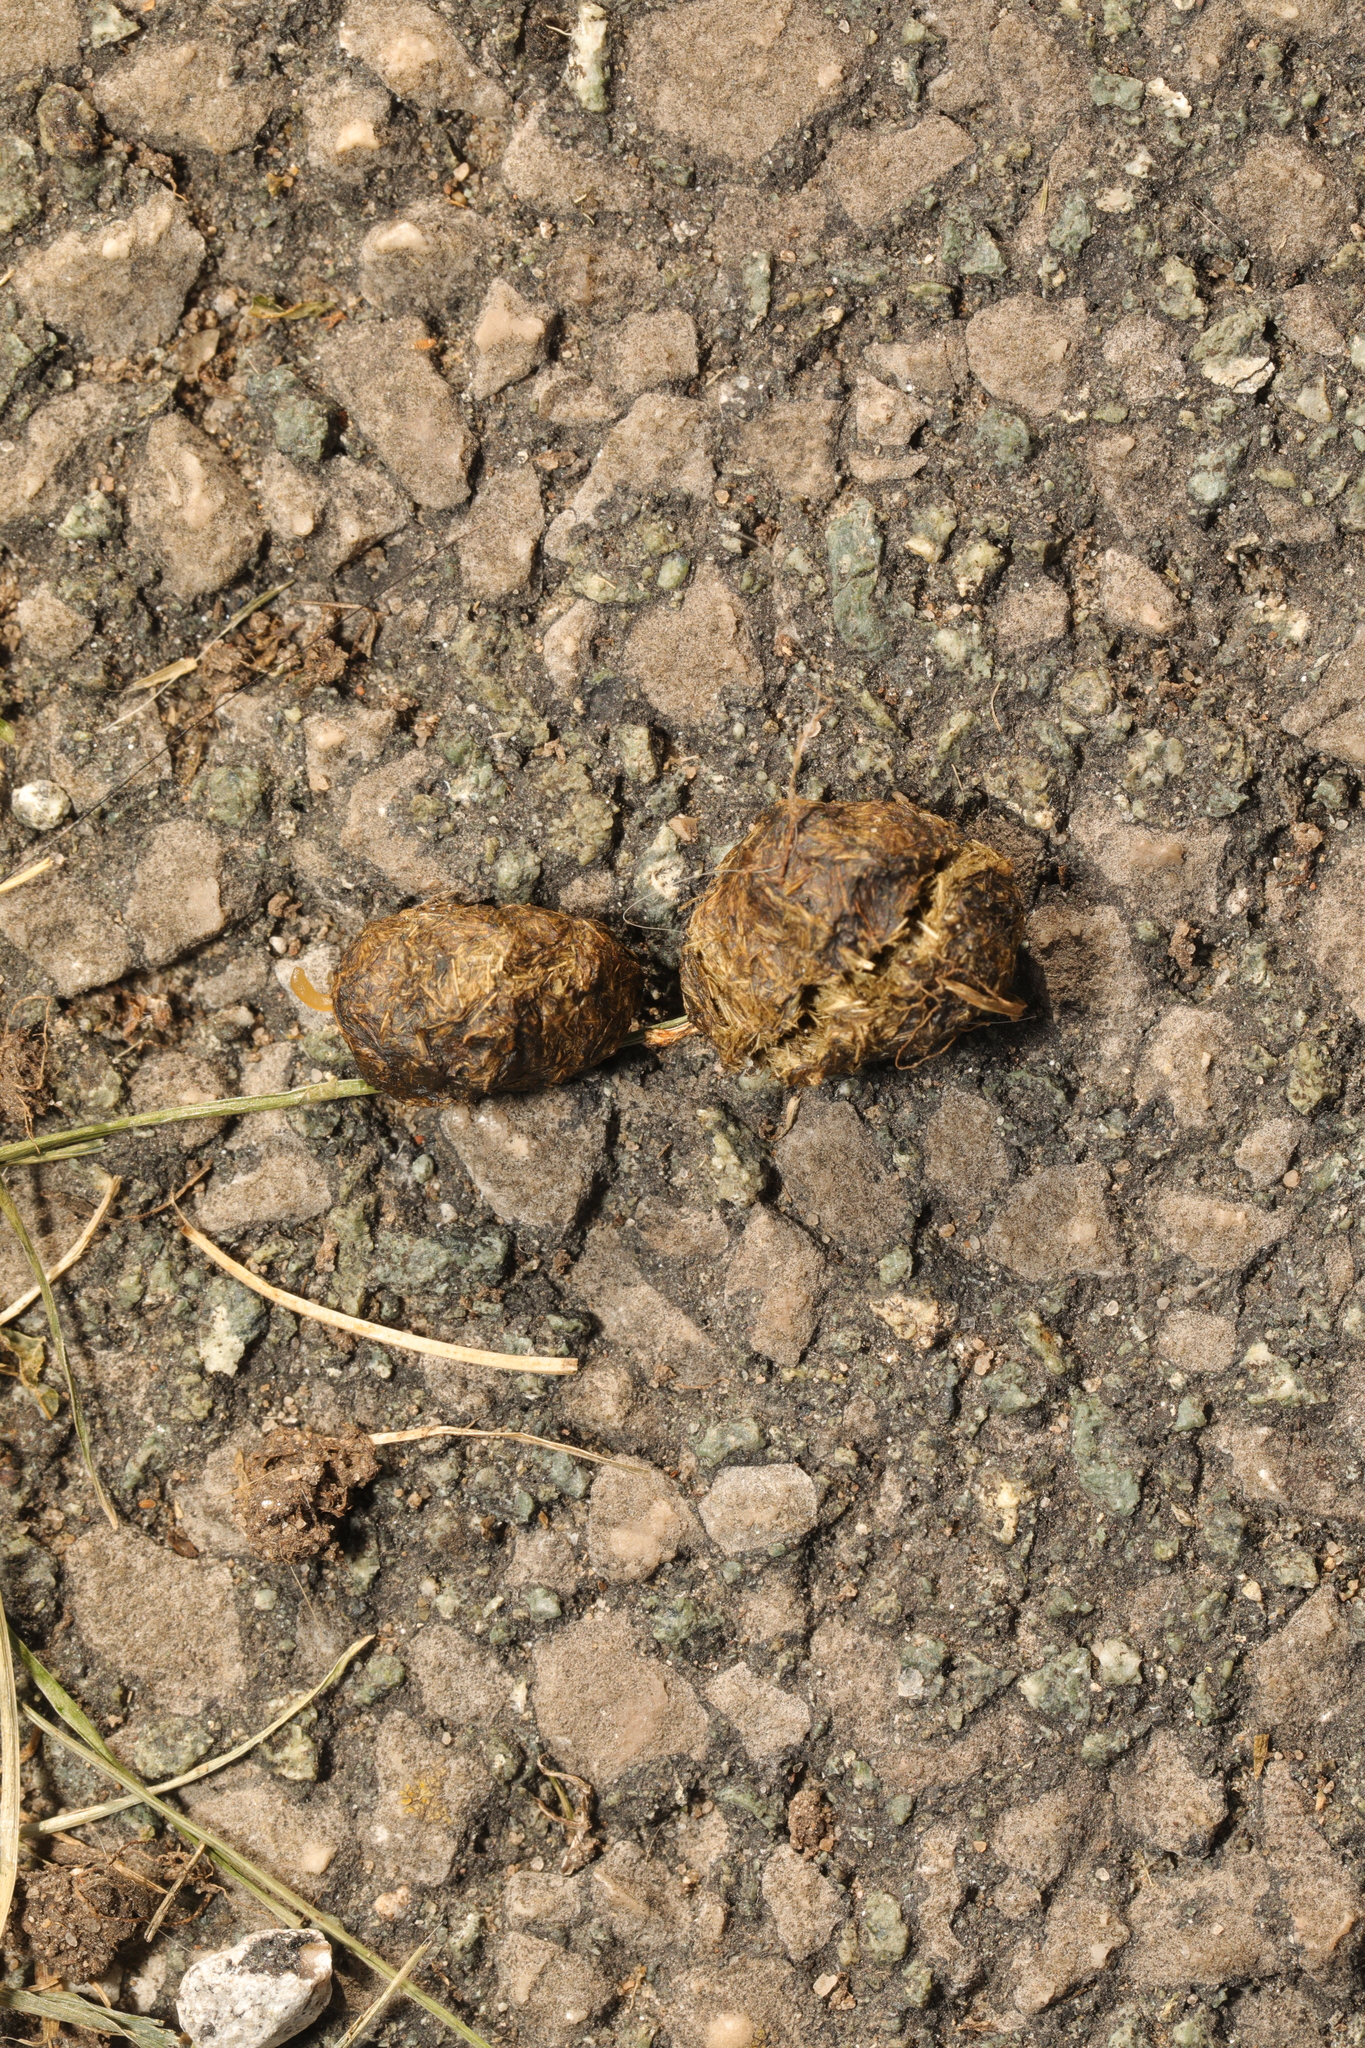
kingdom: Animalia
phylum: Chordata
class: Mammalia
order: Lagomorpha
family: Leporidae
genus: Oryctolagus
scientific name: Oryctolagus cuniculus
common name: European rabbit
